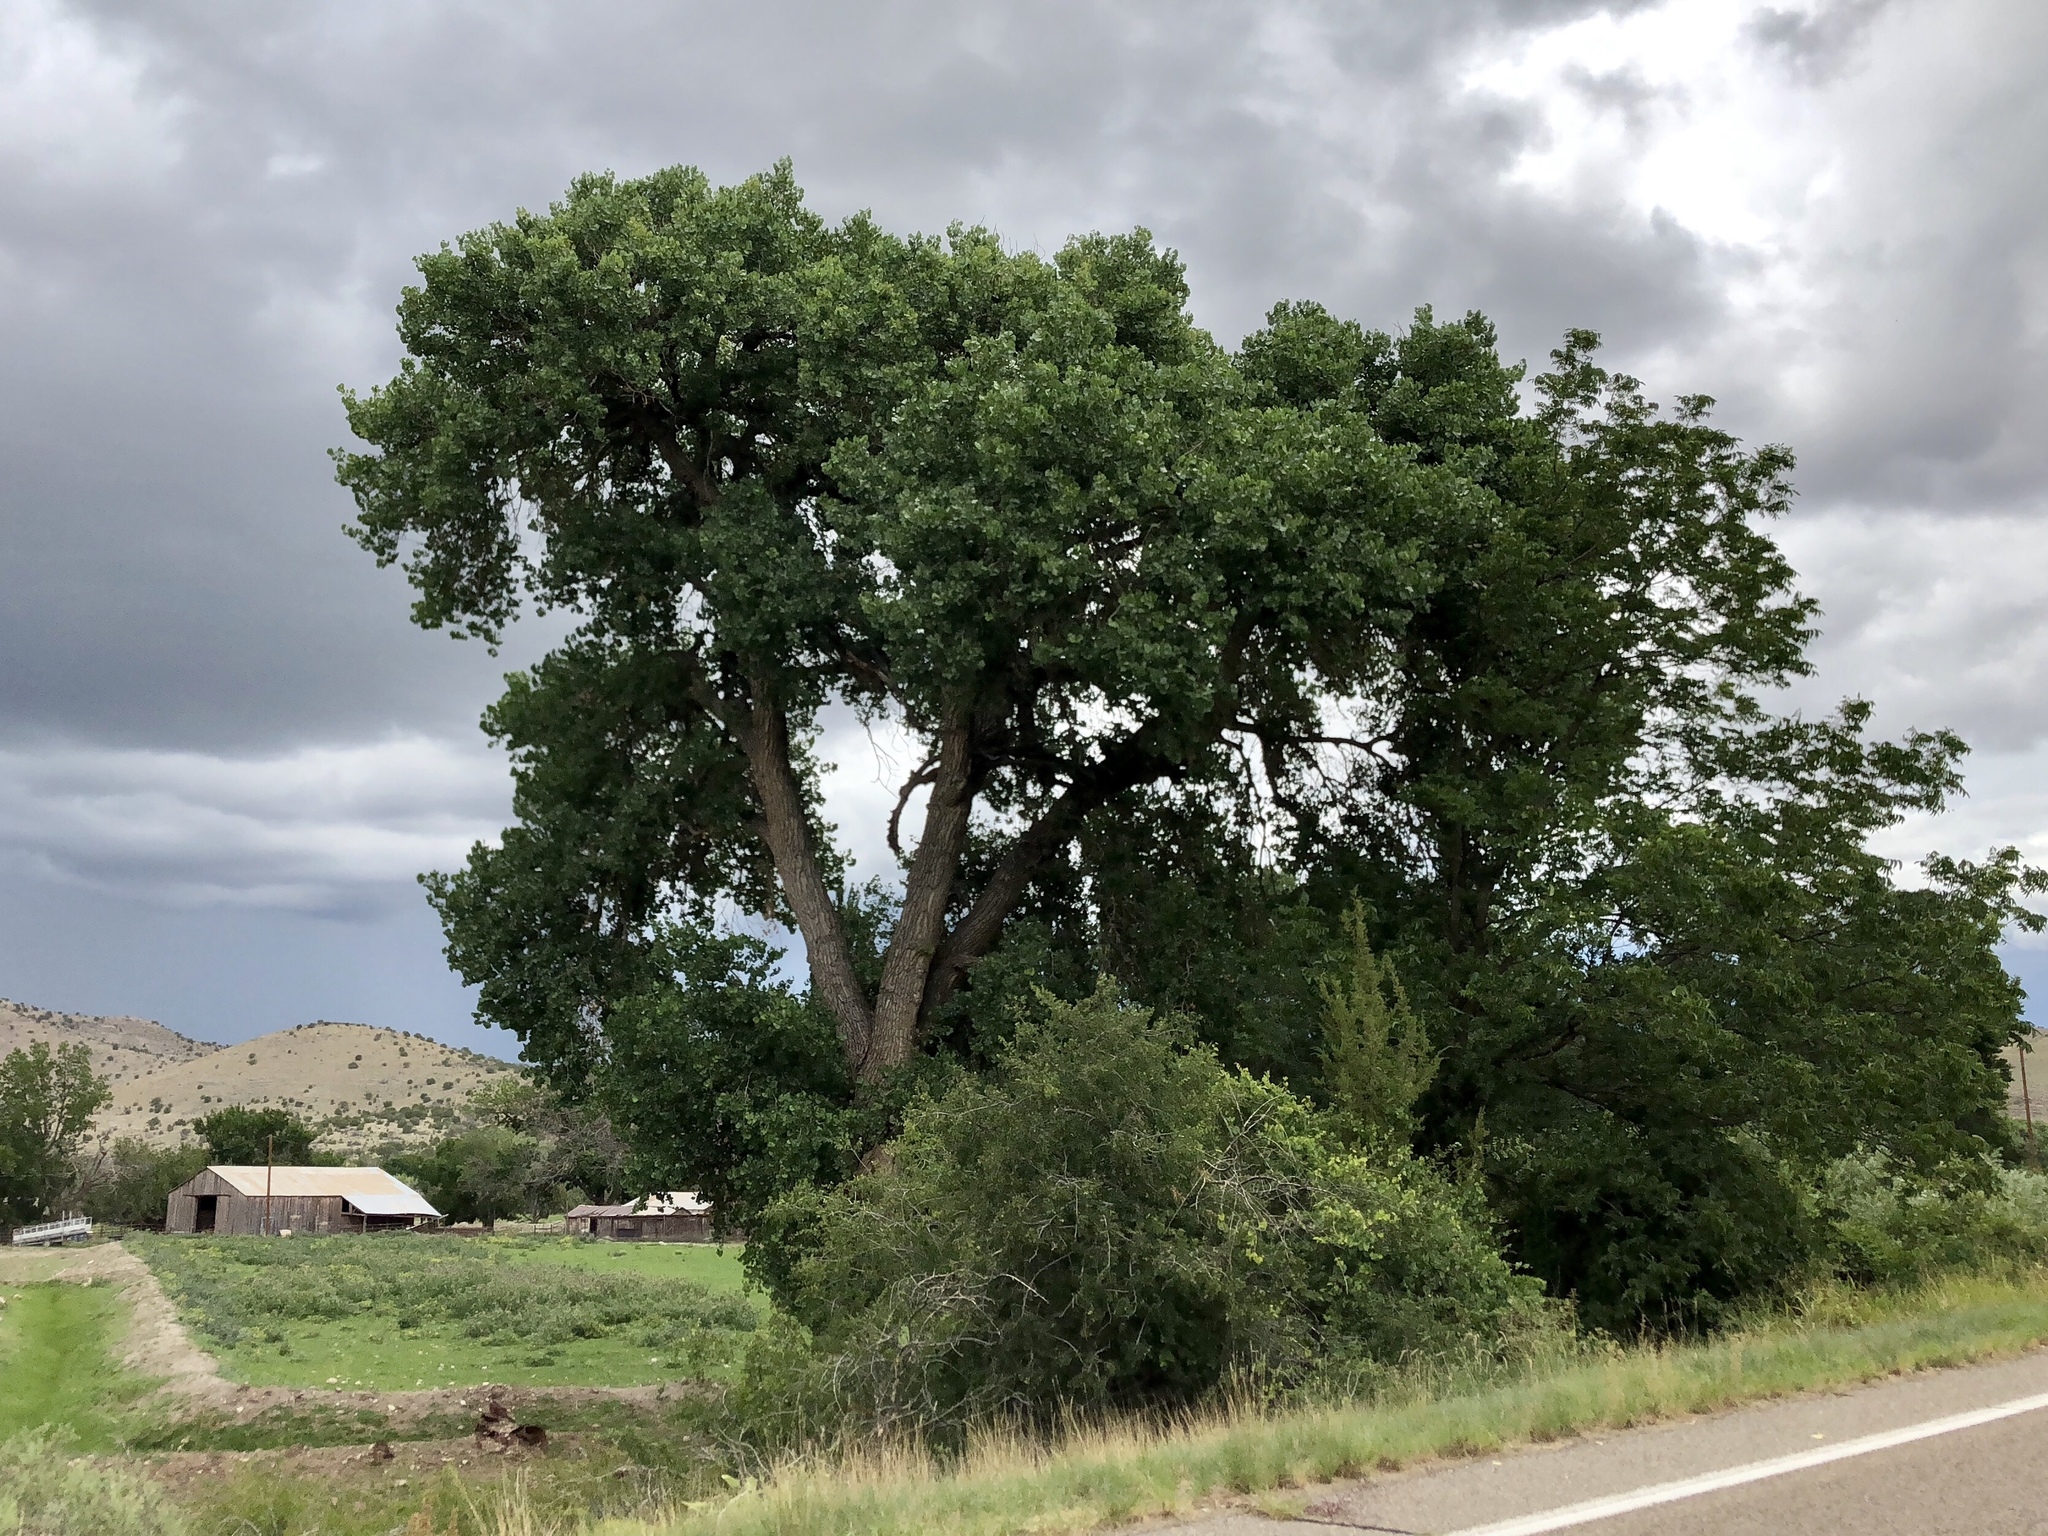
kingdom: Plantae
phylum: Tracheophyta
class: Magnoliopsida
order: Malpighiales
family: Salicaceae
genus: Populus
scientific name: Populus fremontii
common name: Fremont's cottonwood
